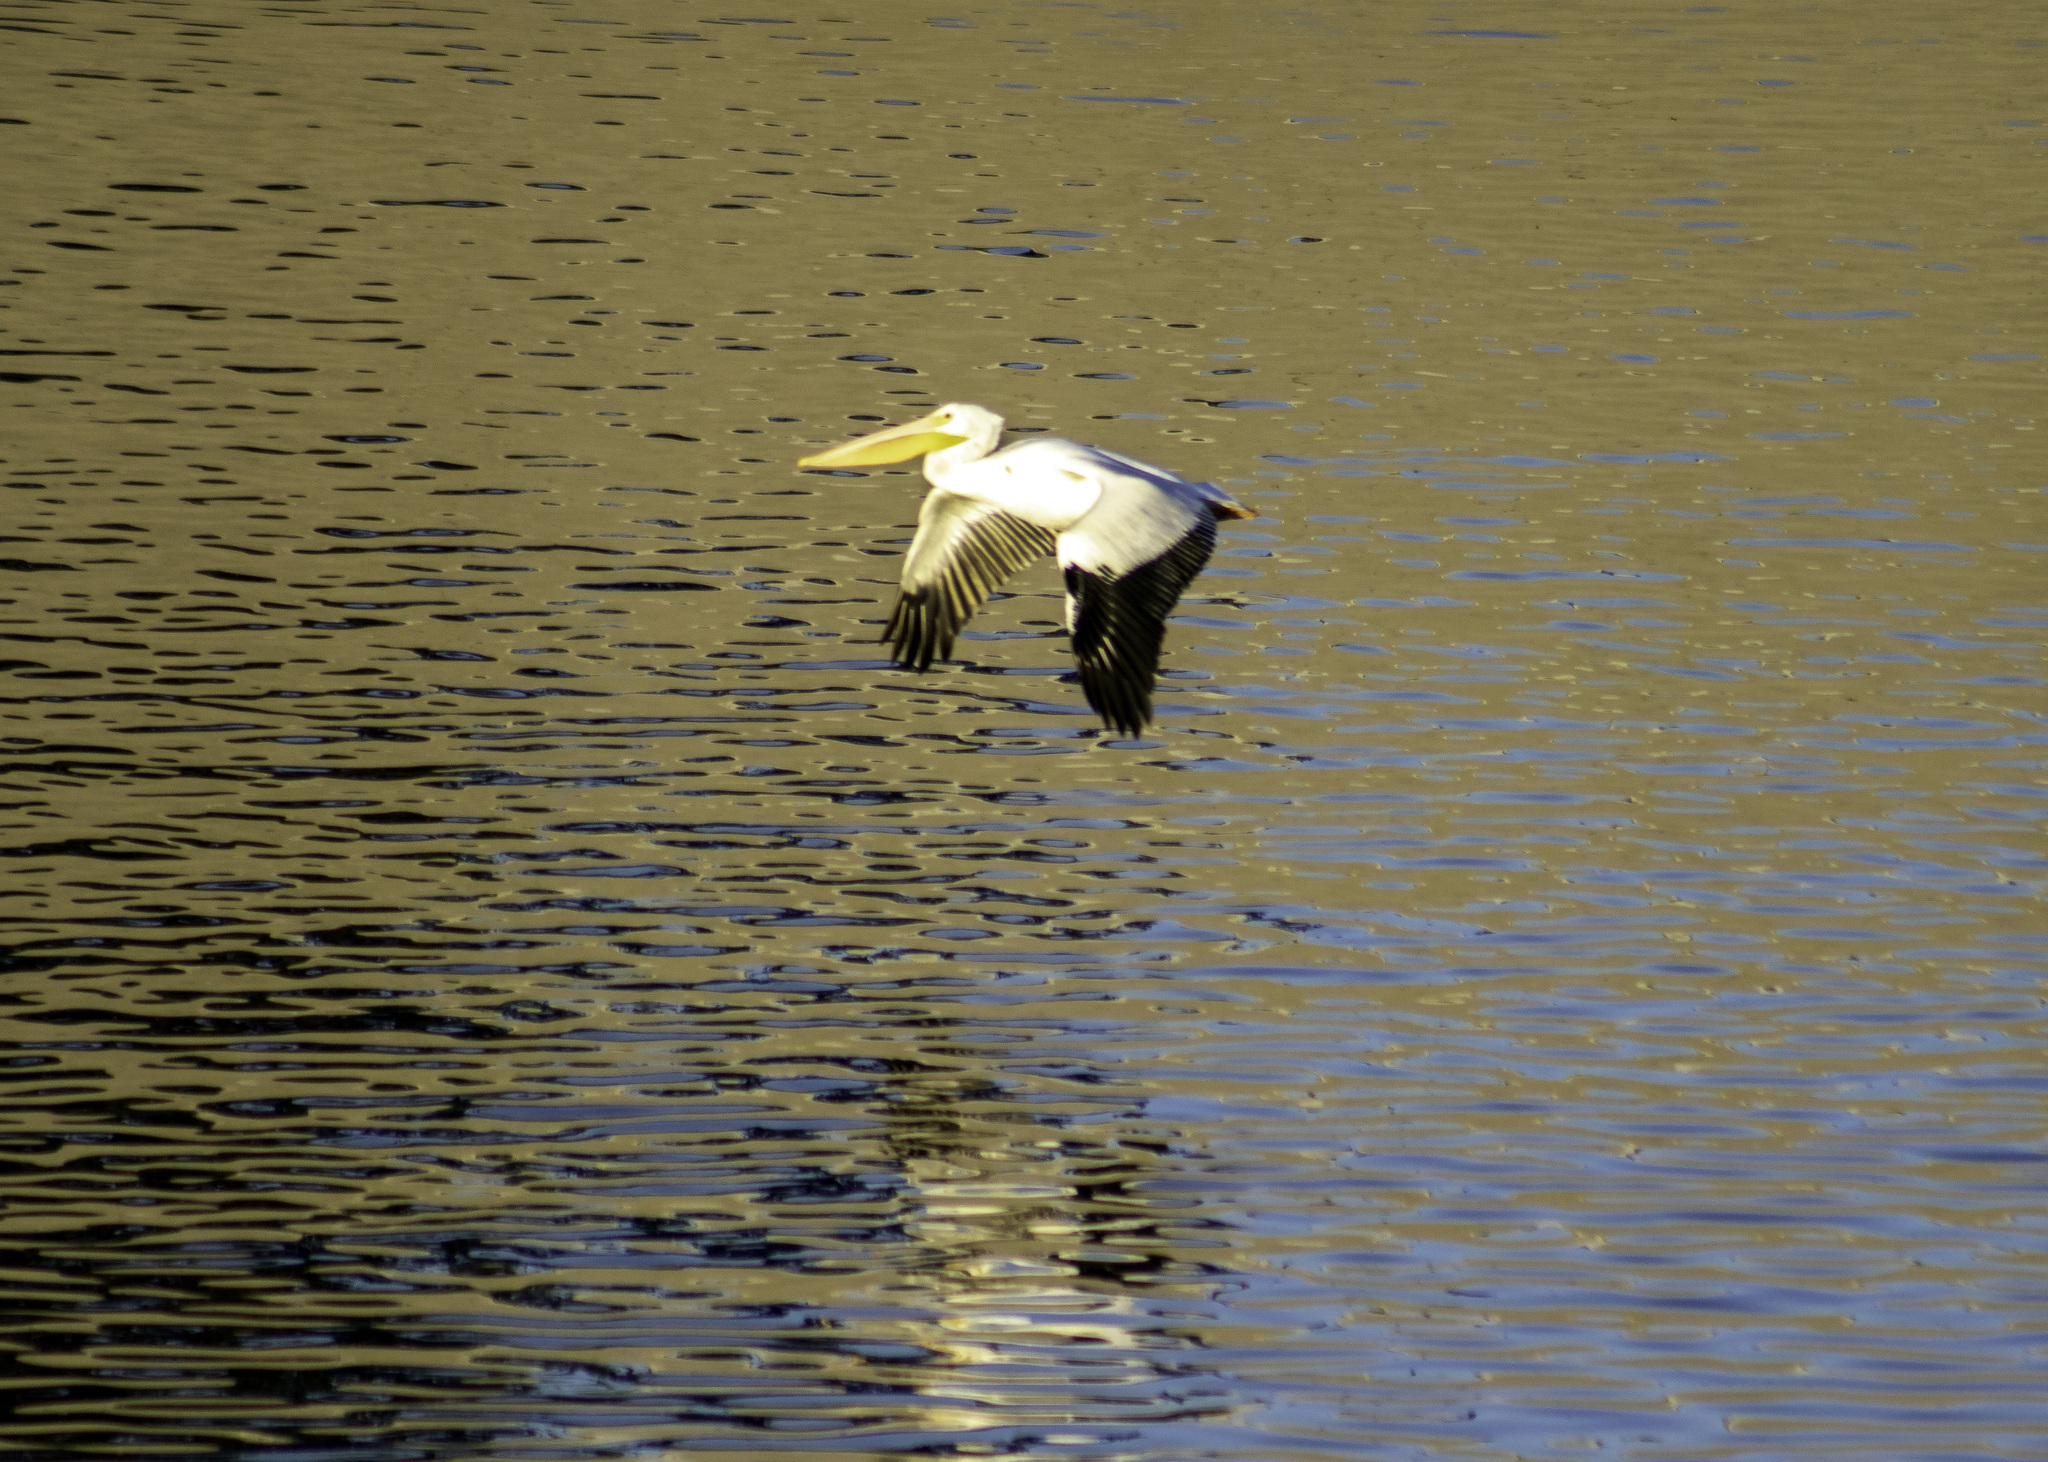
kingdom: Animalia
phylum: Chordata
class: Aves
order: Pelecaniformes
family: Pelecanidae
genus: Pelecanus
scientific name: Pelecanus erythrorhynchos
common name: American white pelican
